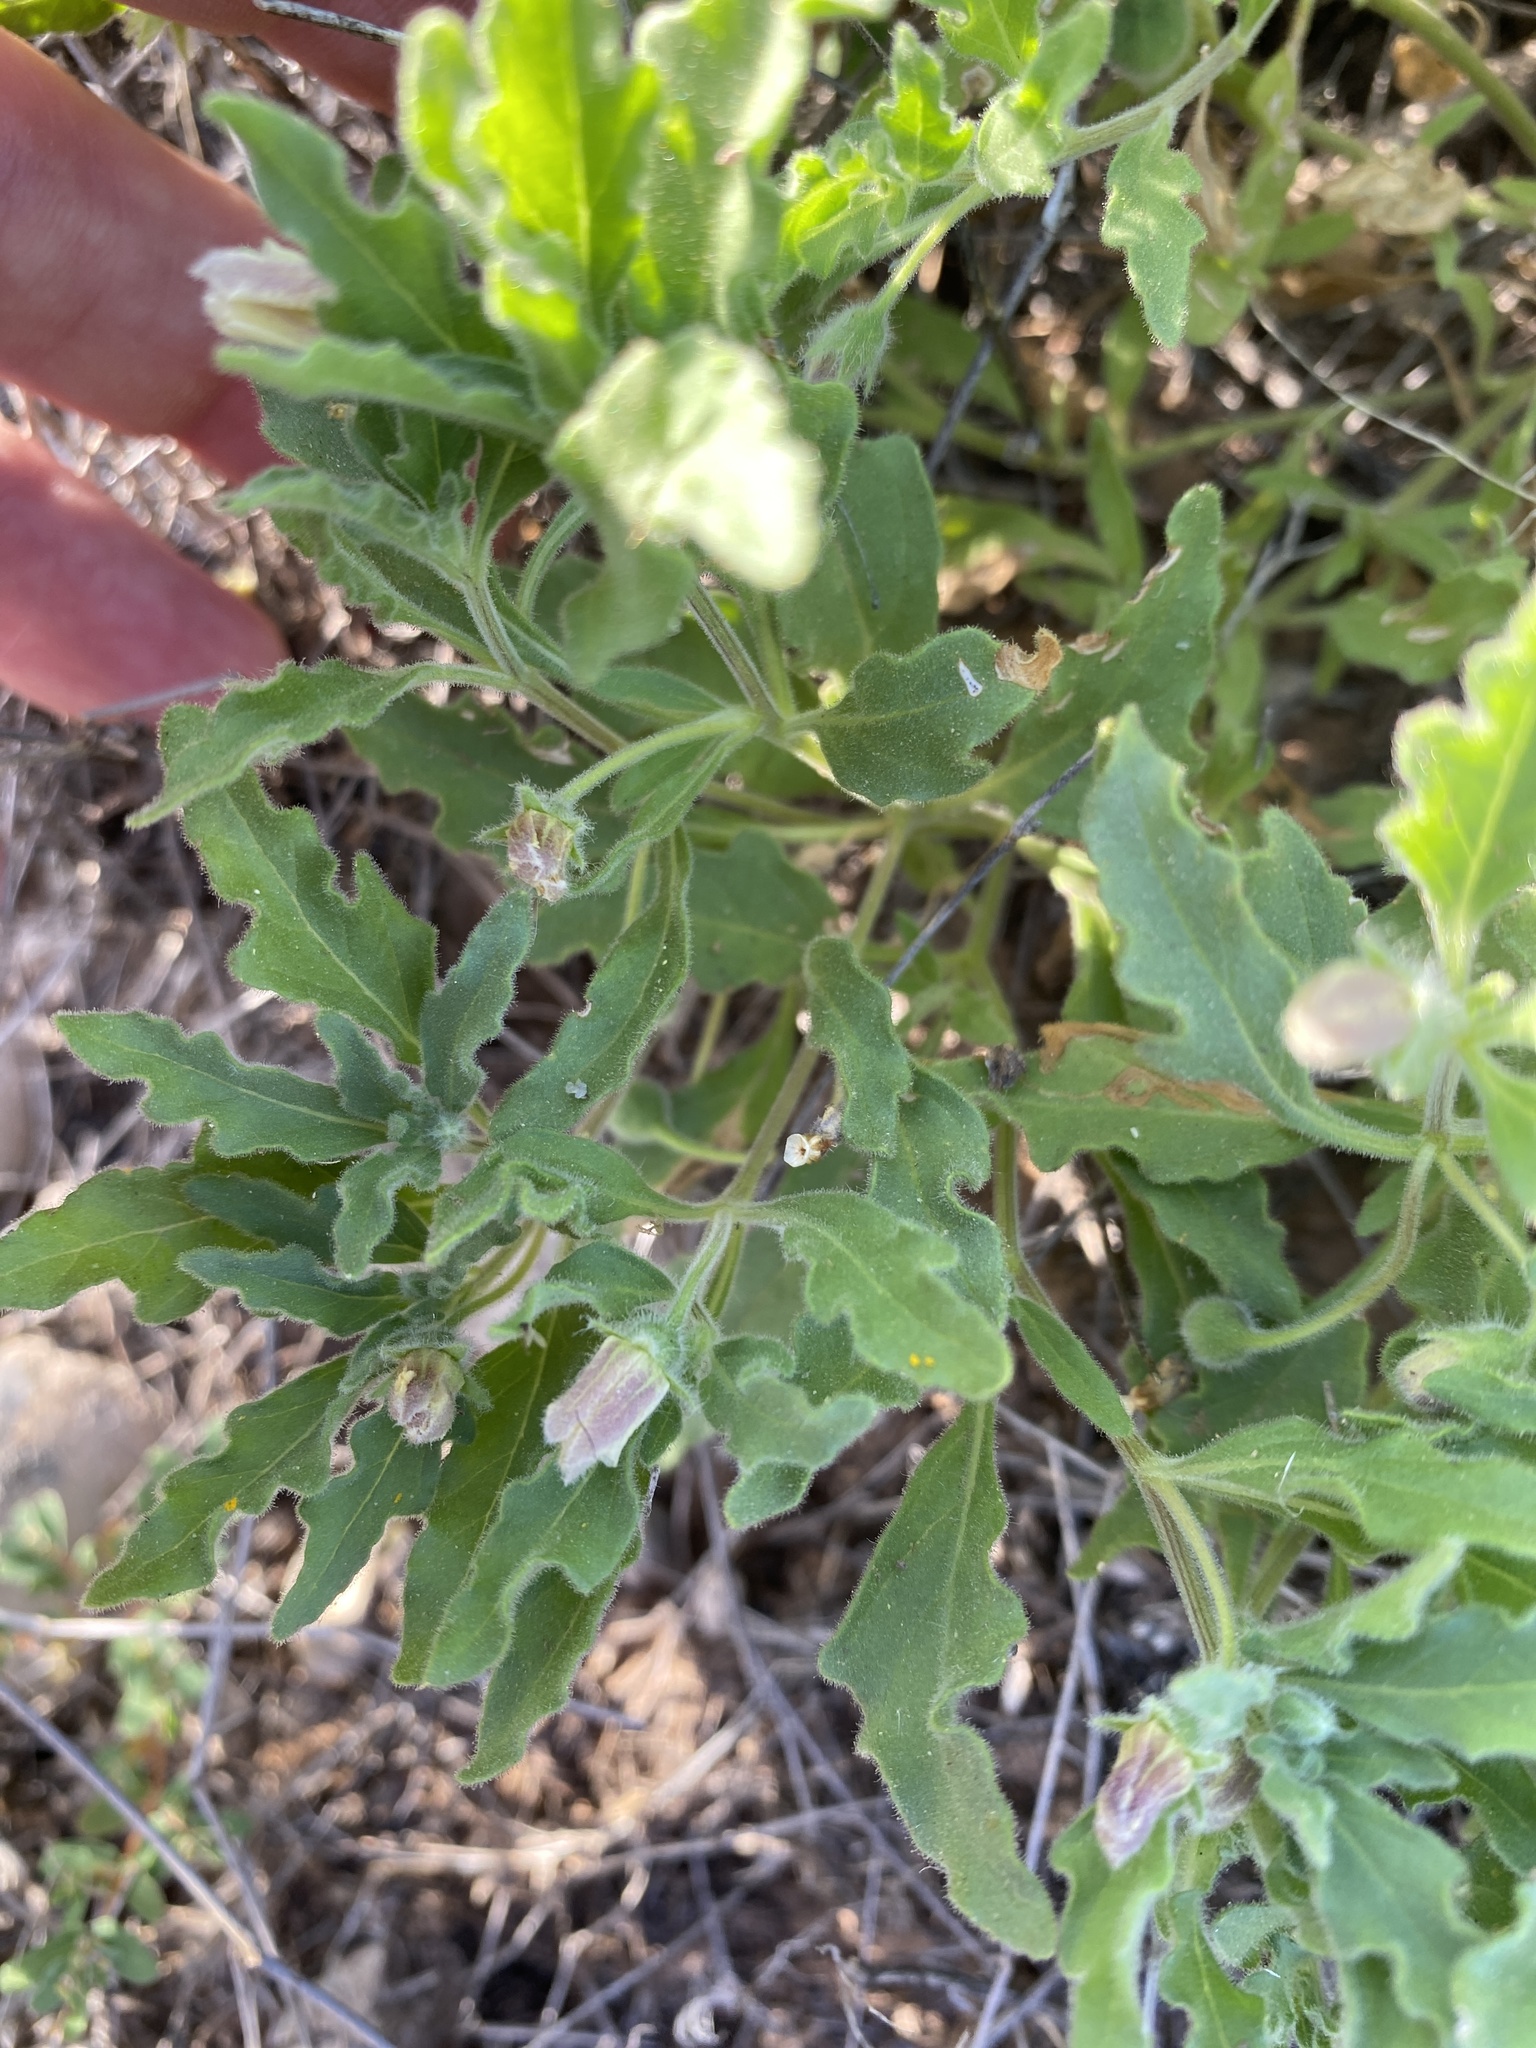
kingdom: Plantae
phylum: Tracheophyta
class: Magnoliopsida
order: Solanales
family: Solanaceae
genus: Chamaesaracha
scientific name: Chamaesaracha sordida
